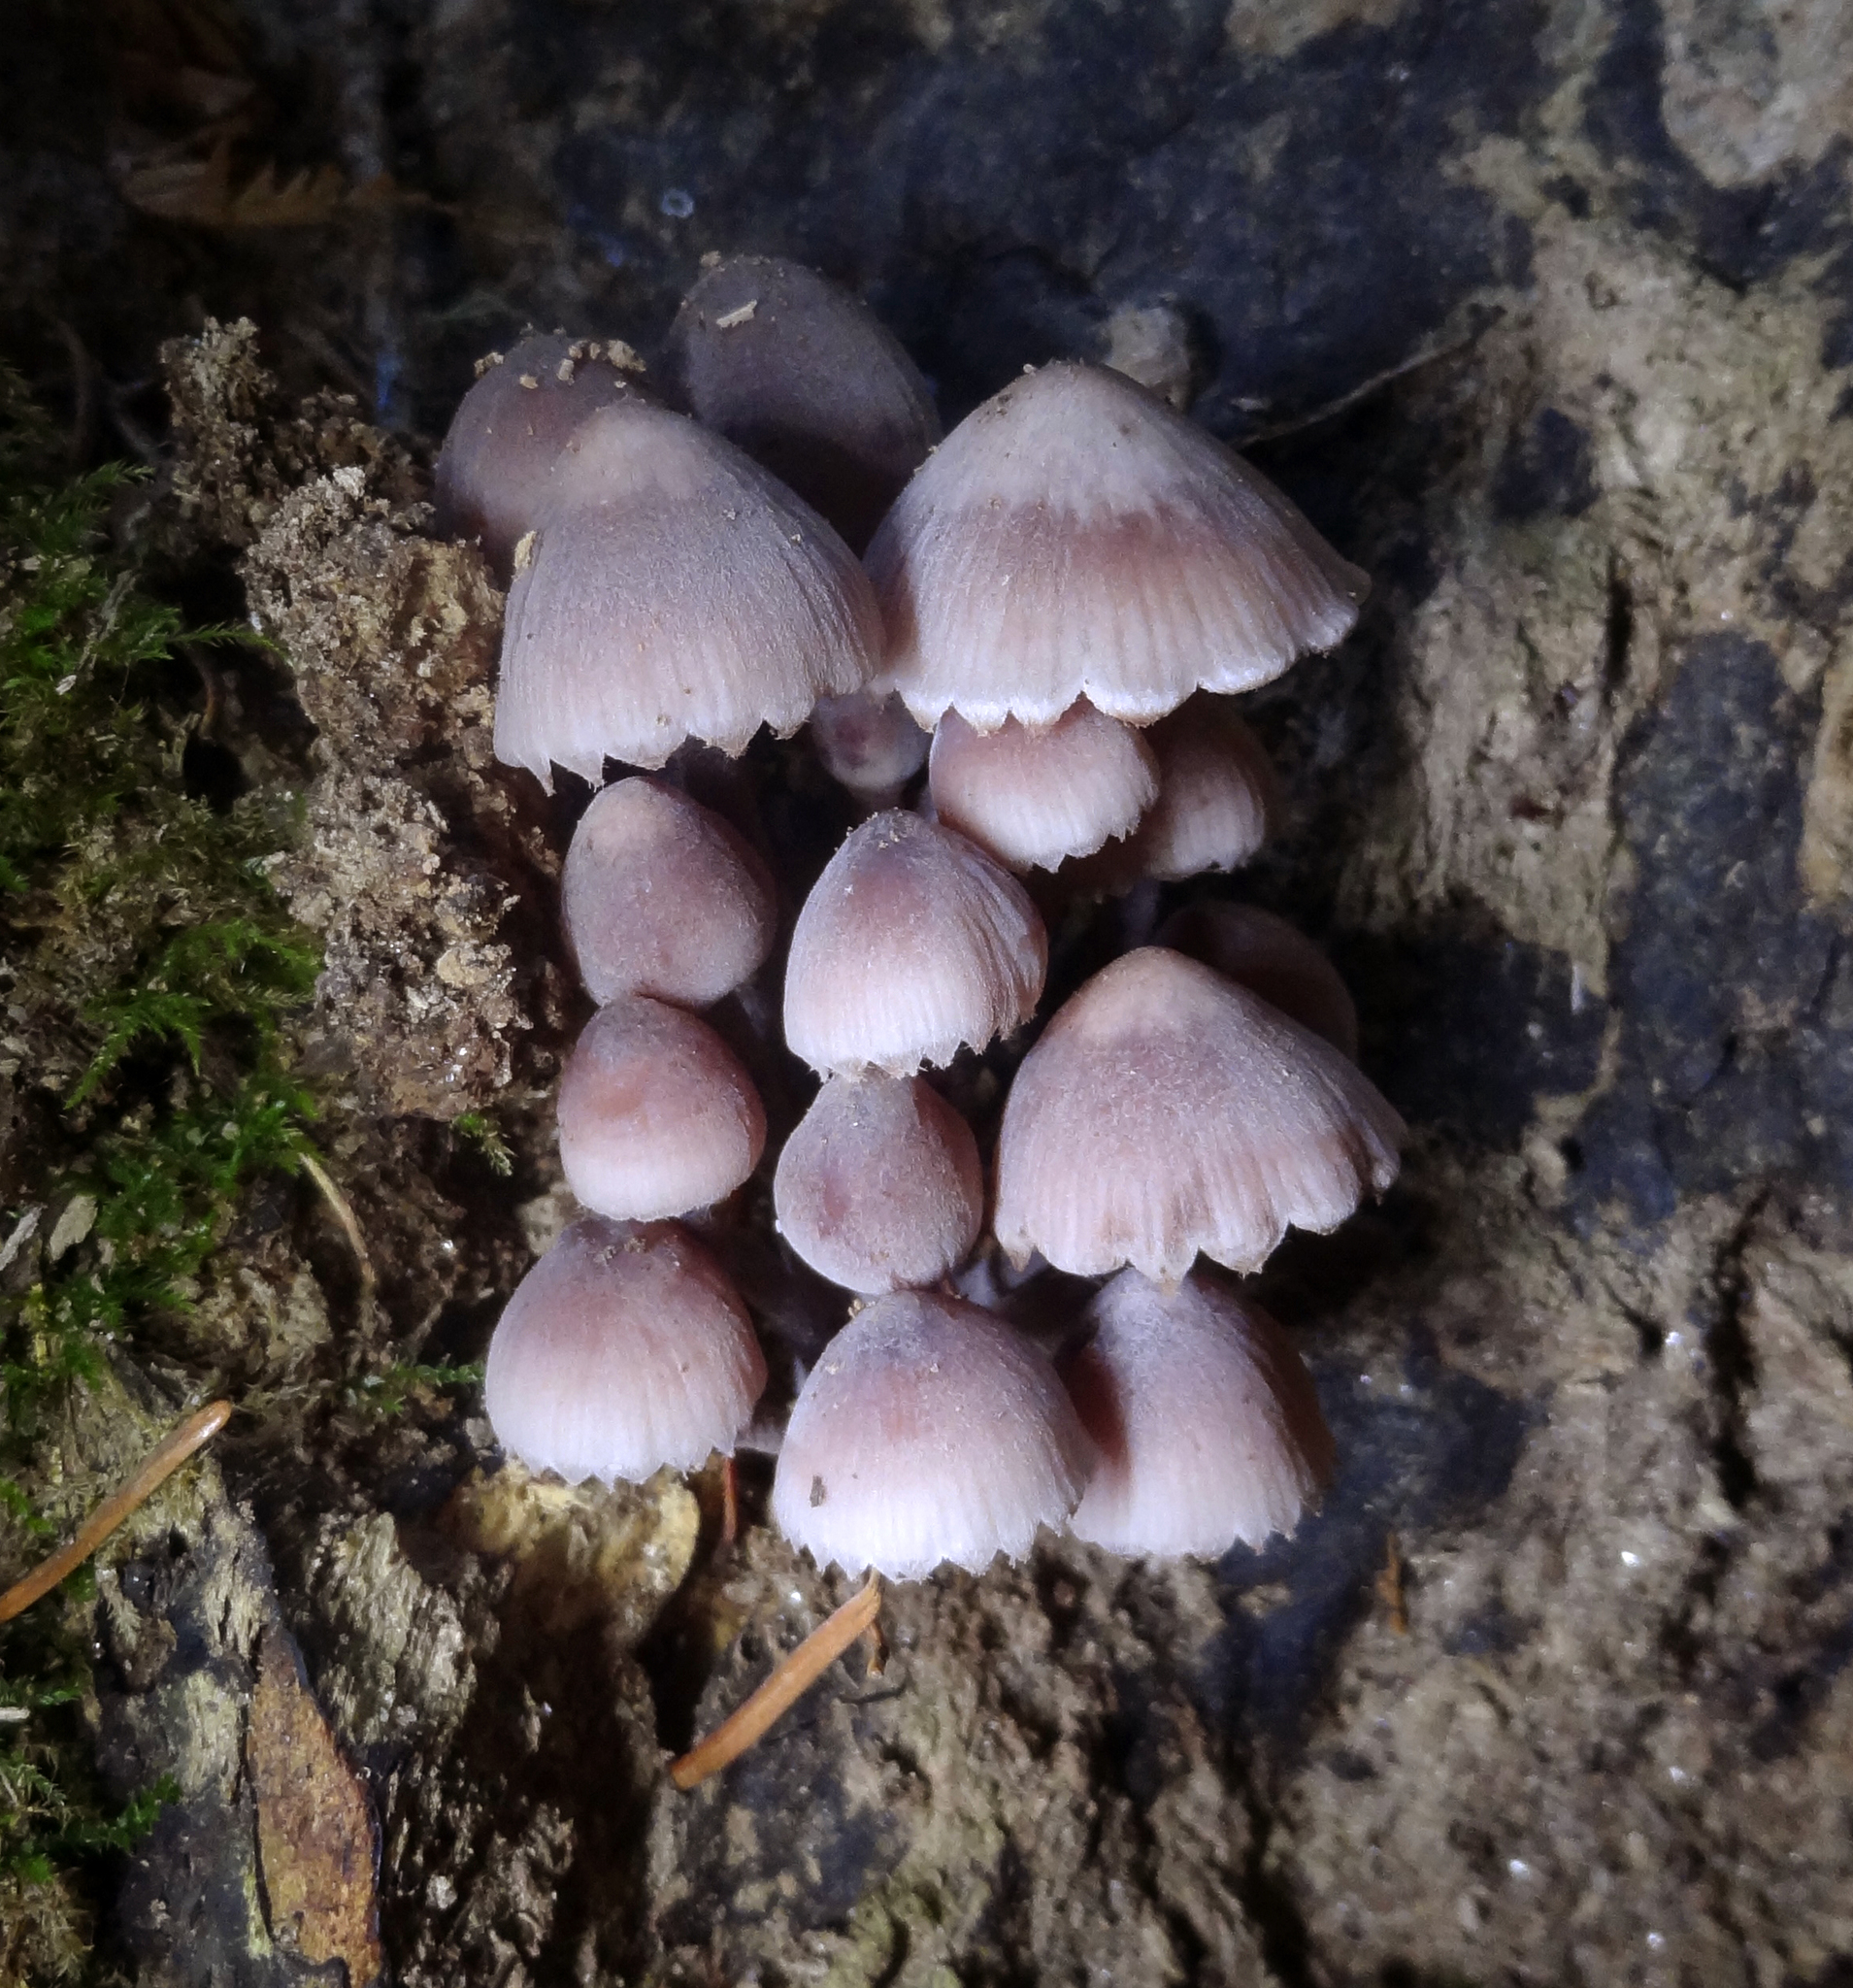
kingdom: Fungi
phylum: Basidiomycota
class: Agaricomycetes
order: Agaricales
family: Mycenaceae
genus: Mycena
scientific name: Mycena haematopus
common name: Burgundydrop bonnet
